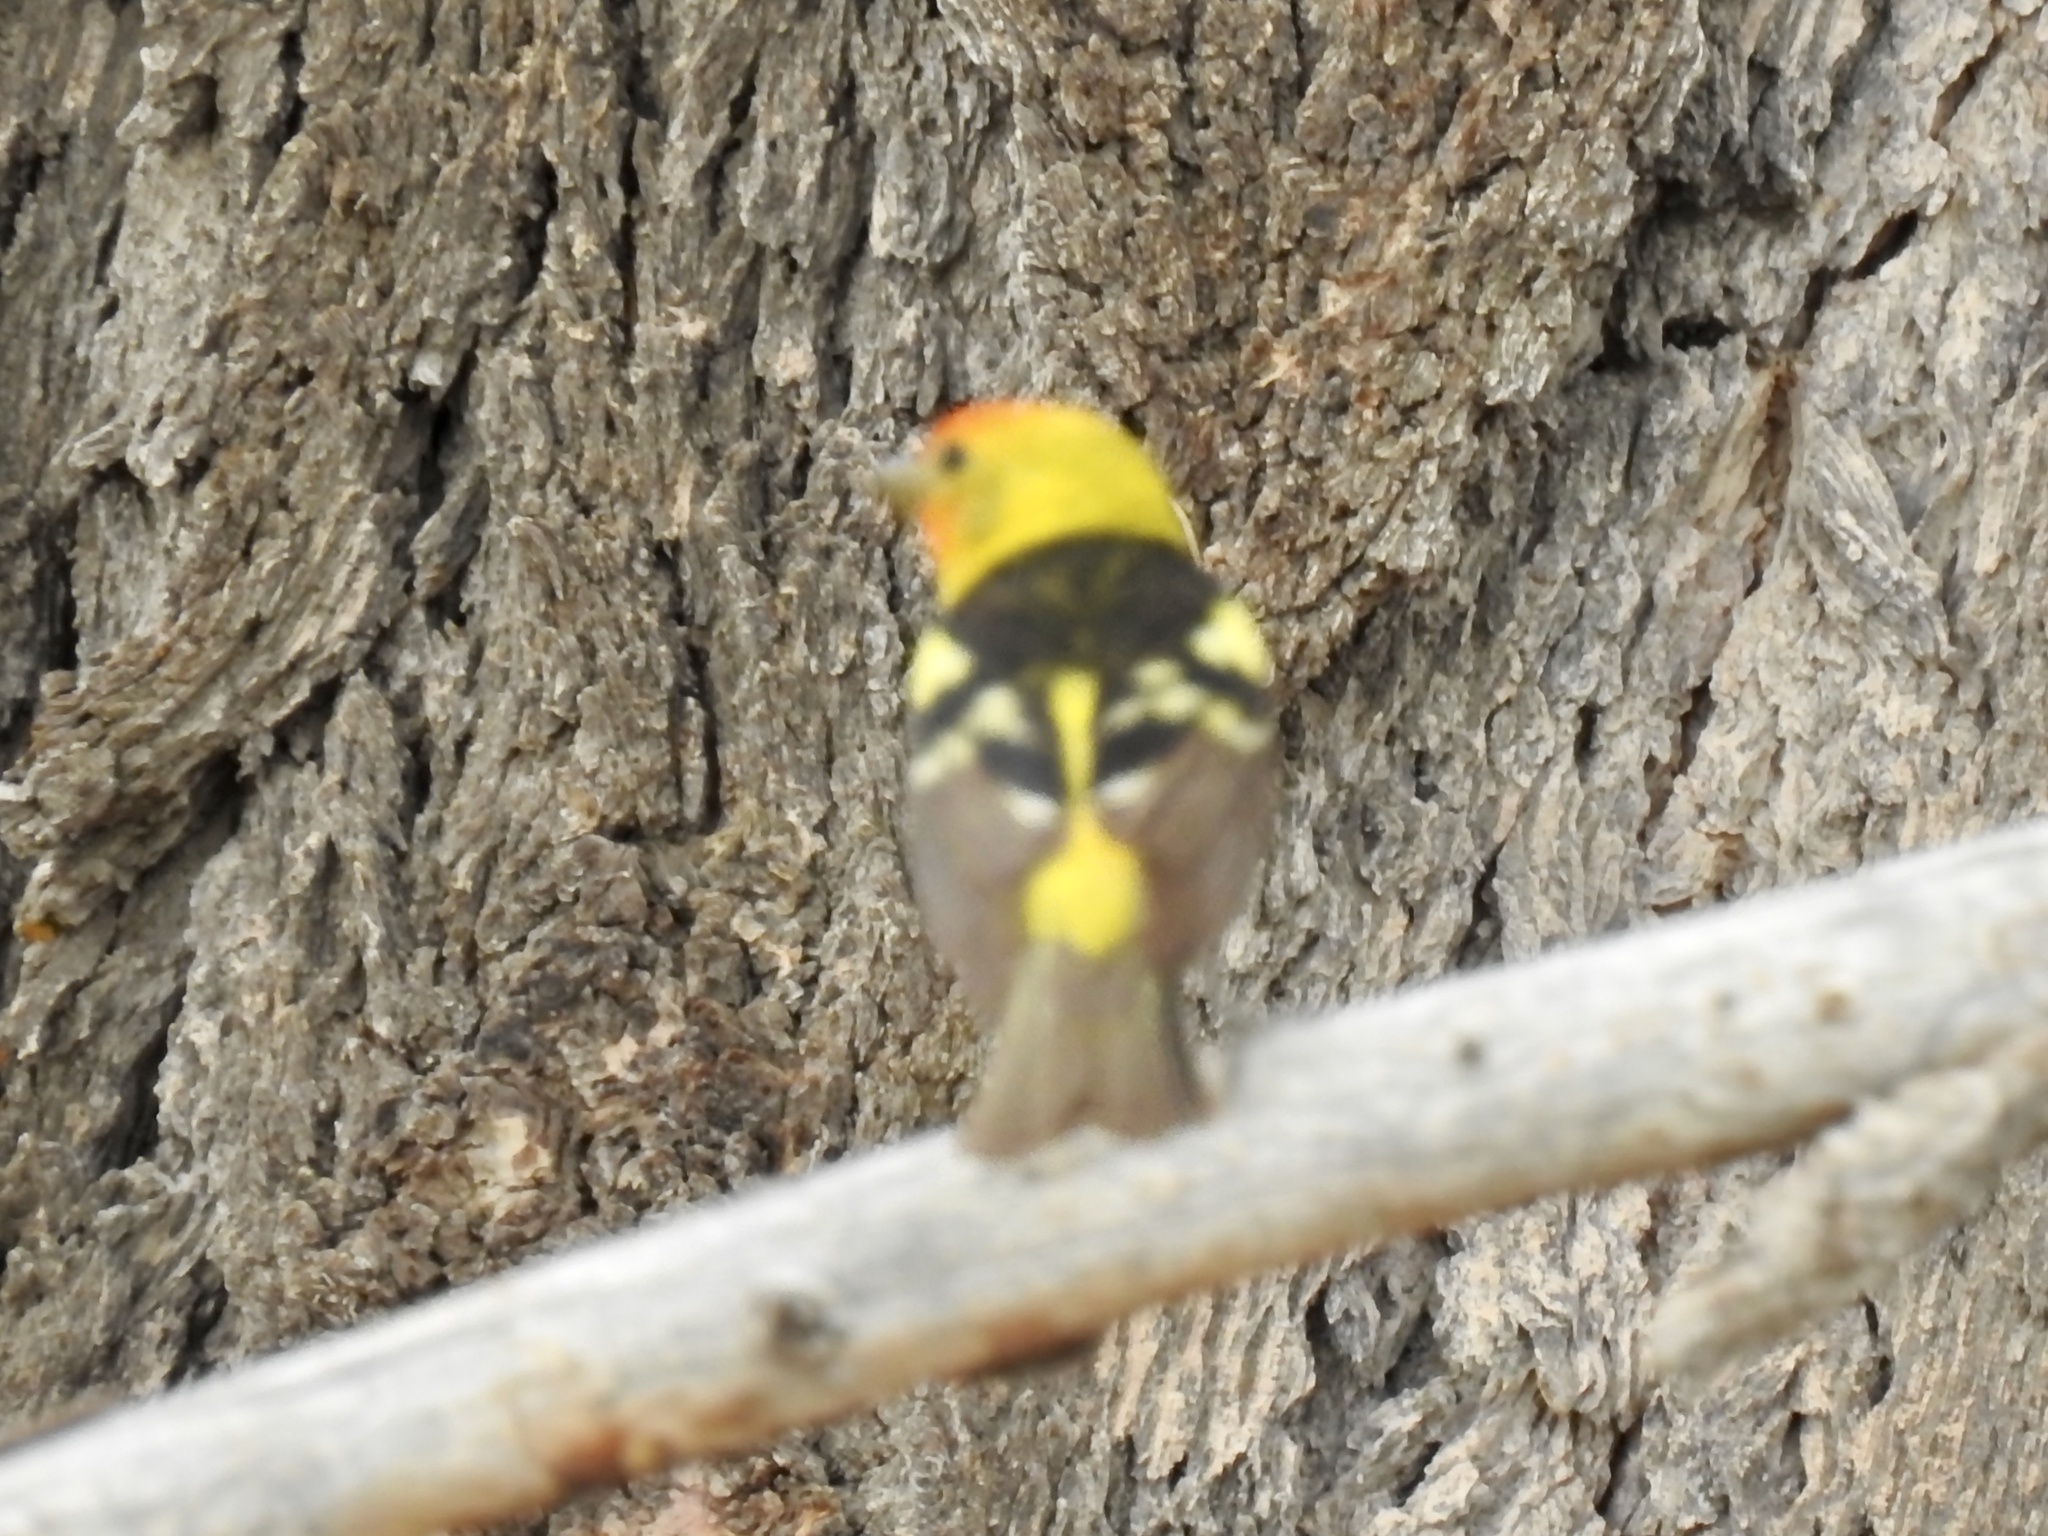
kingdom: Animalia
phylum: Chordata
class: Aves
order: Passeriformes
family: Cardinalidae
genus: Piranga
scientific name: Piranga ludoviciana
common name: Western tanager
